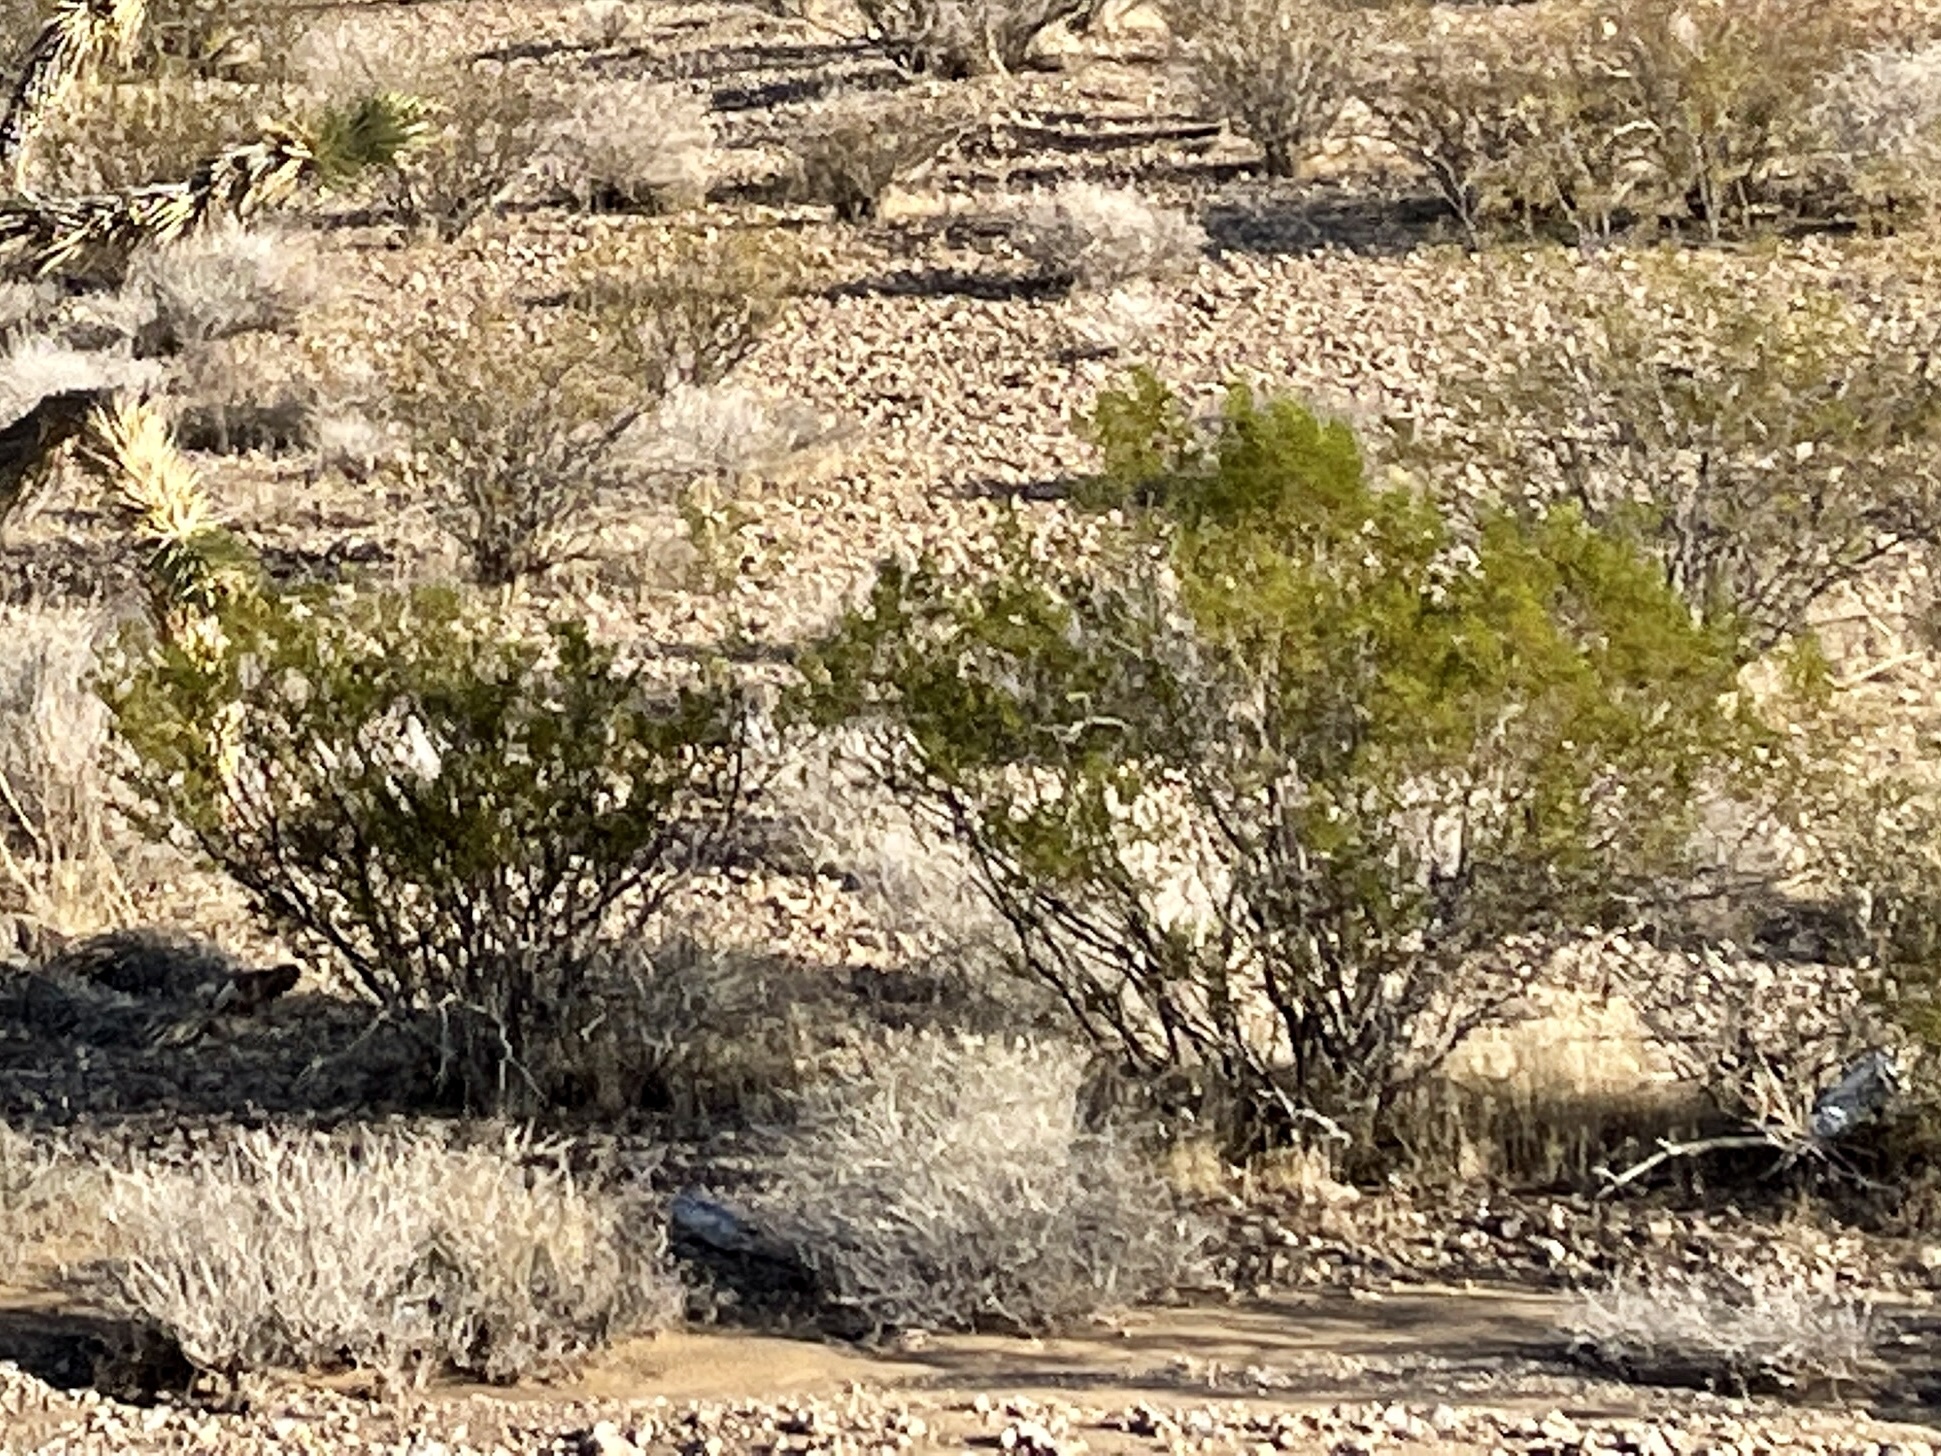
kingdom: Plantae
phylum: Tracheophyta
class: Magnoliopsida
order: Zygophyllales
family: Zygophyllaceae
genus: Larrea
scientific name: Larrea tridentata
